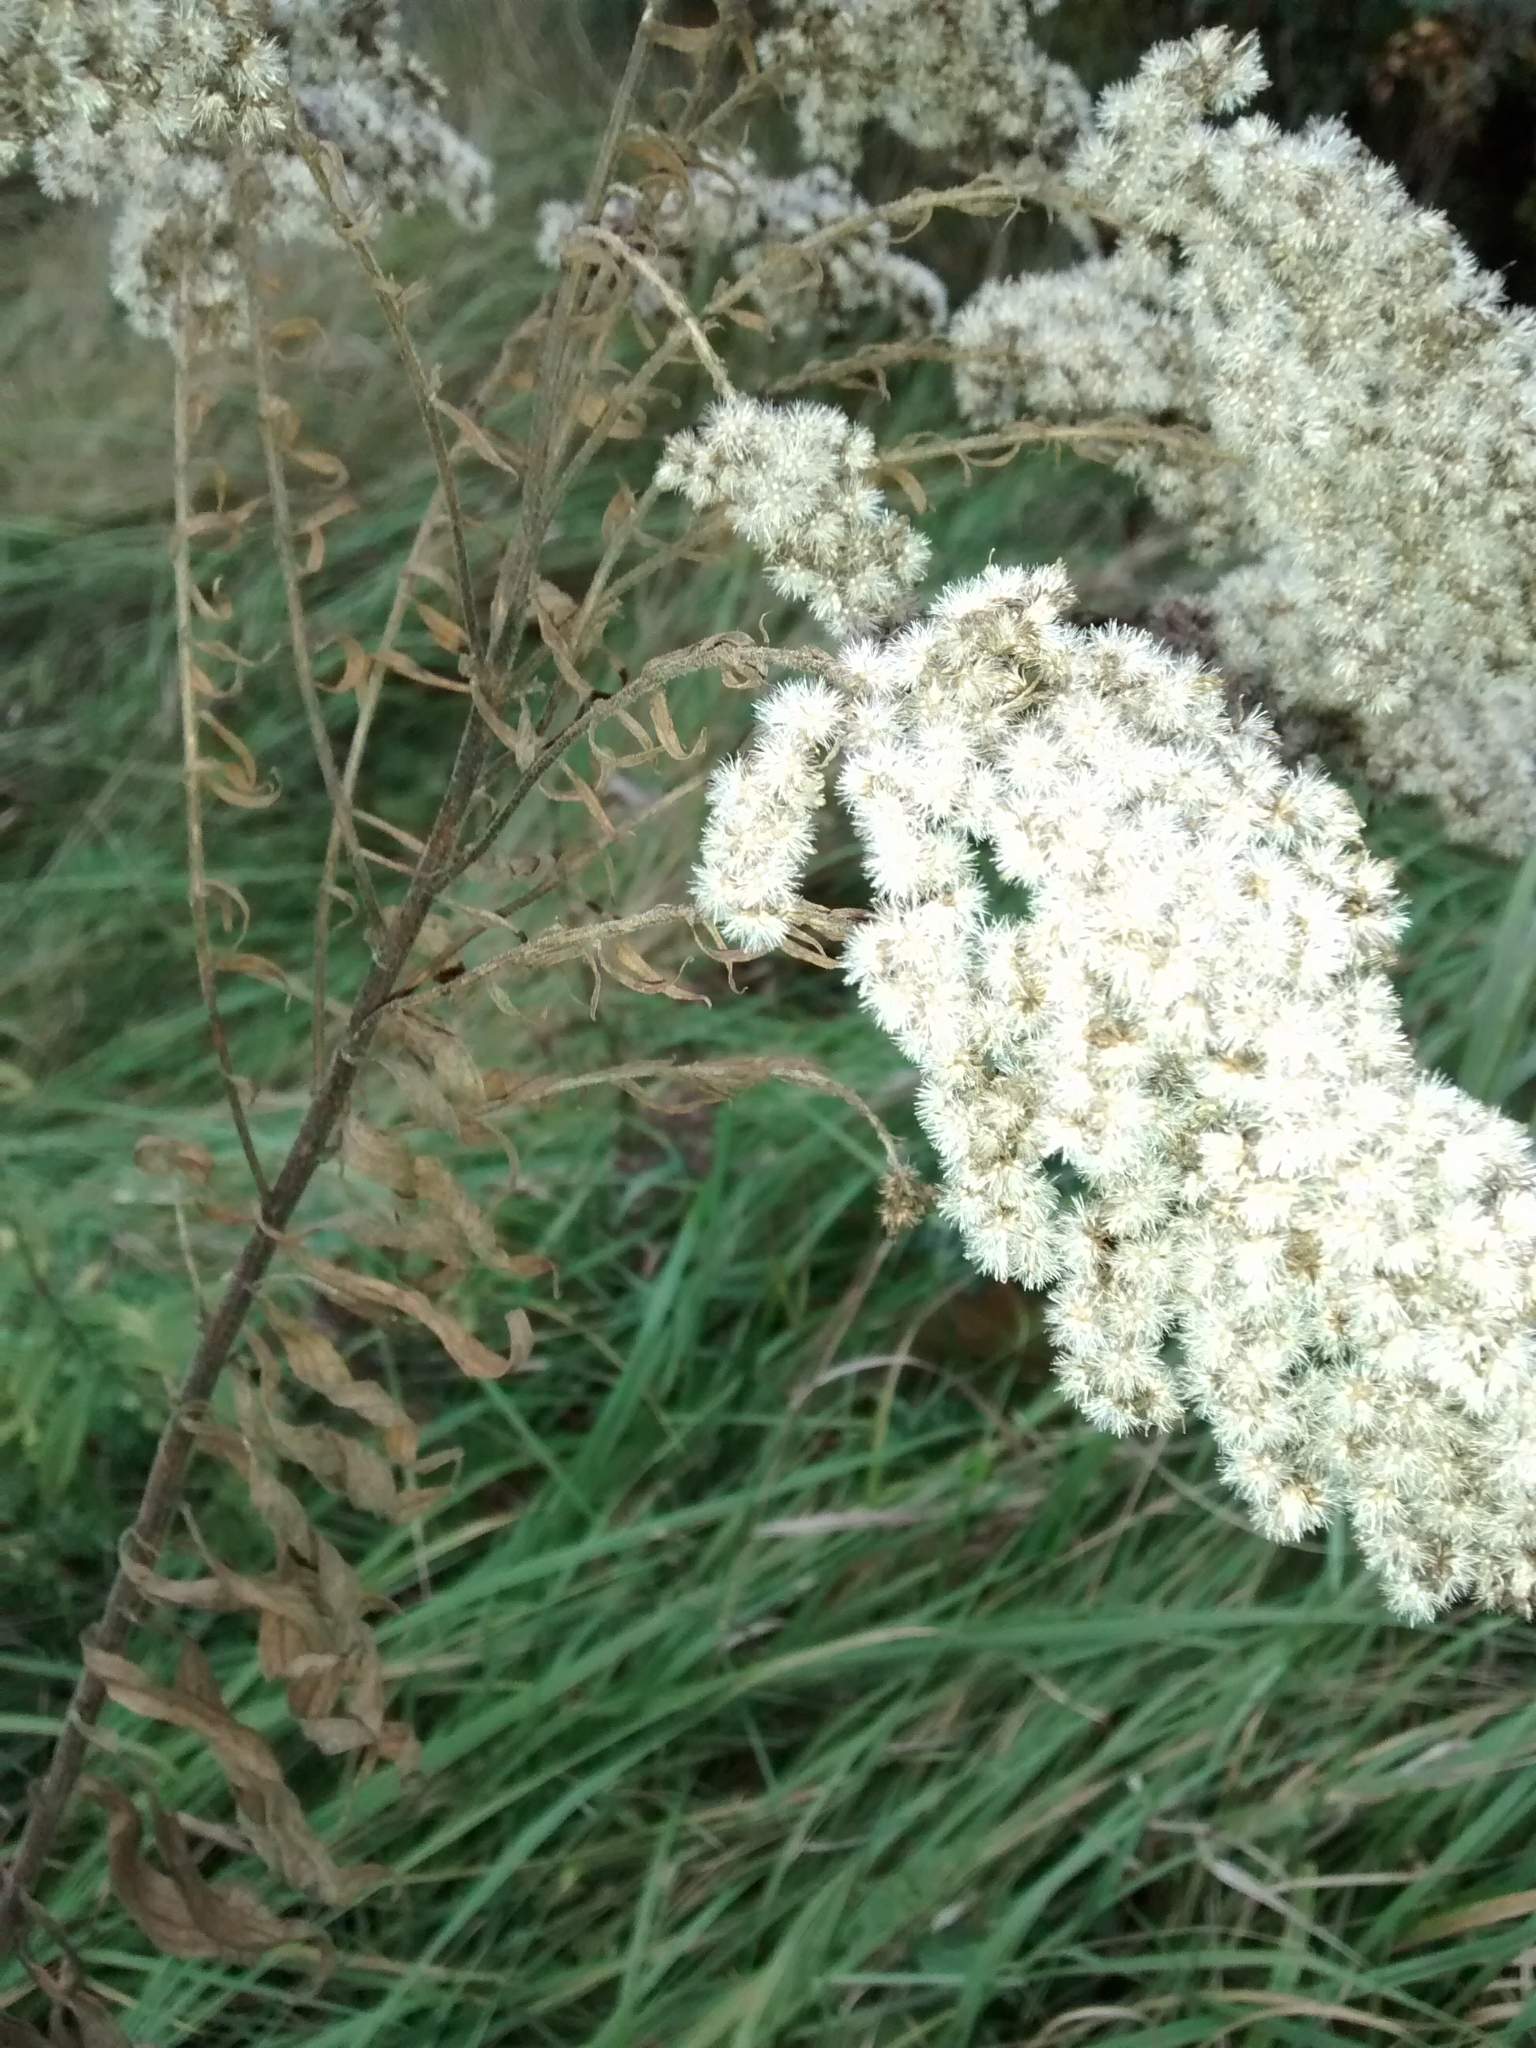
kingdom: Plantae
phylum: Tracheophyta
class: Magnoliopsida
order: Asterales
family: Asteraceae
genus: Solidago
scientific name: Solidago canadensis
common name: Canada goldenrod
